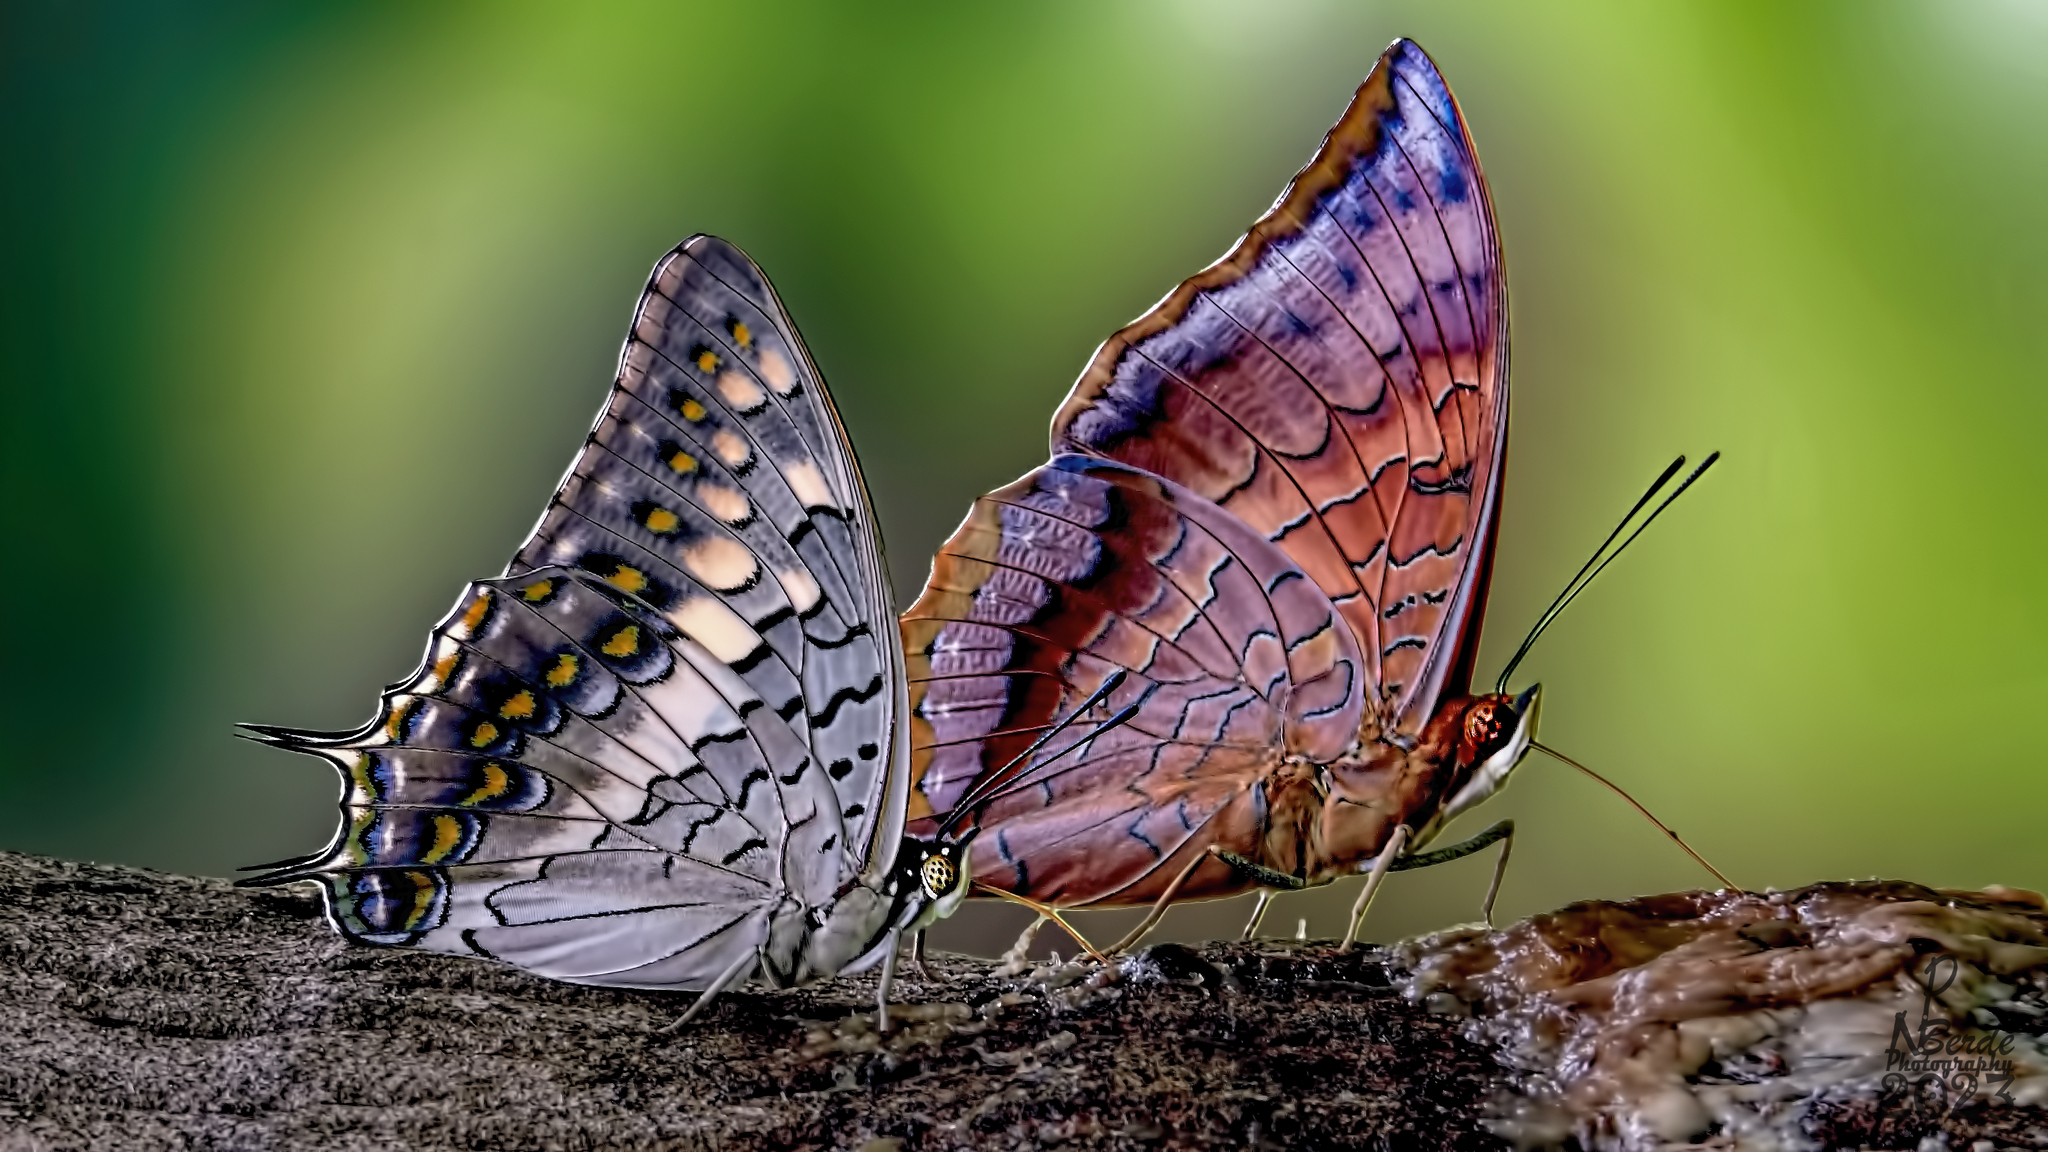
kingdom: Animalia
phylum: Arthropoda
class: Insecta
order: Lepidoptera
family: Nymphalidae
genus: Charaxes
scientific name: Charaxes solon
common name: Black rajah
